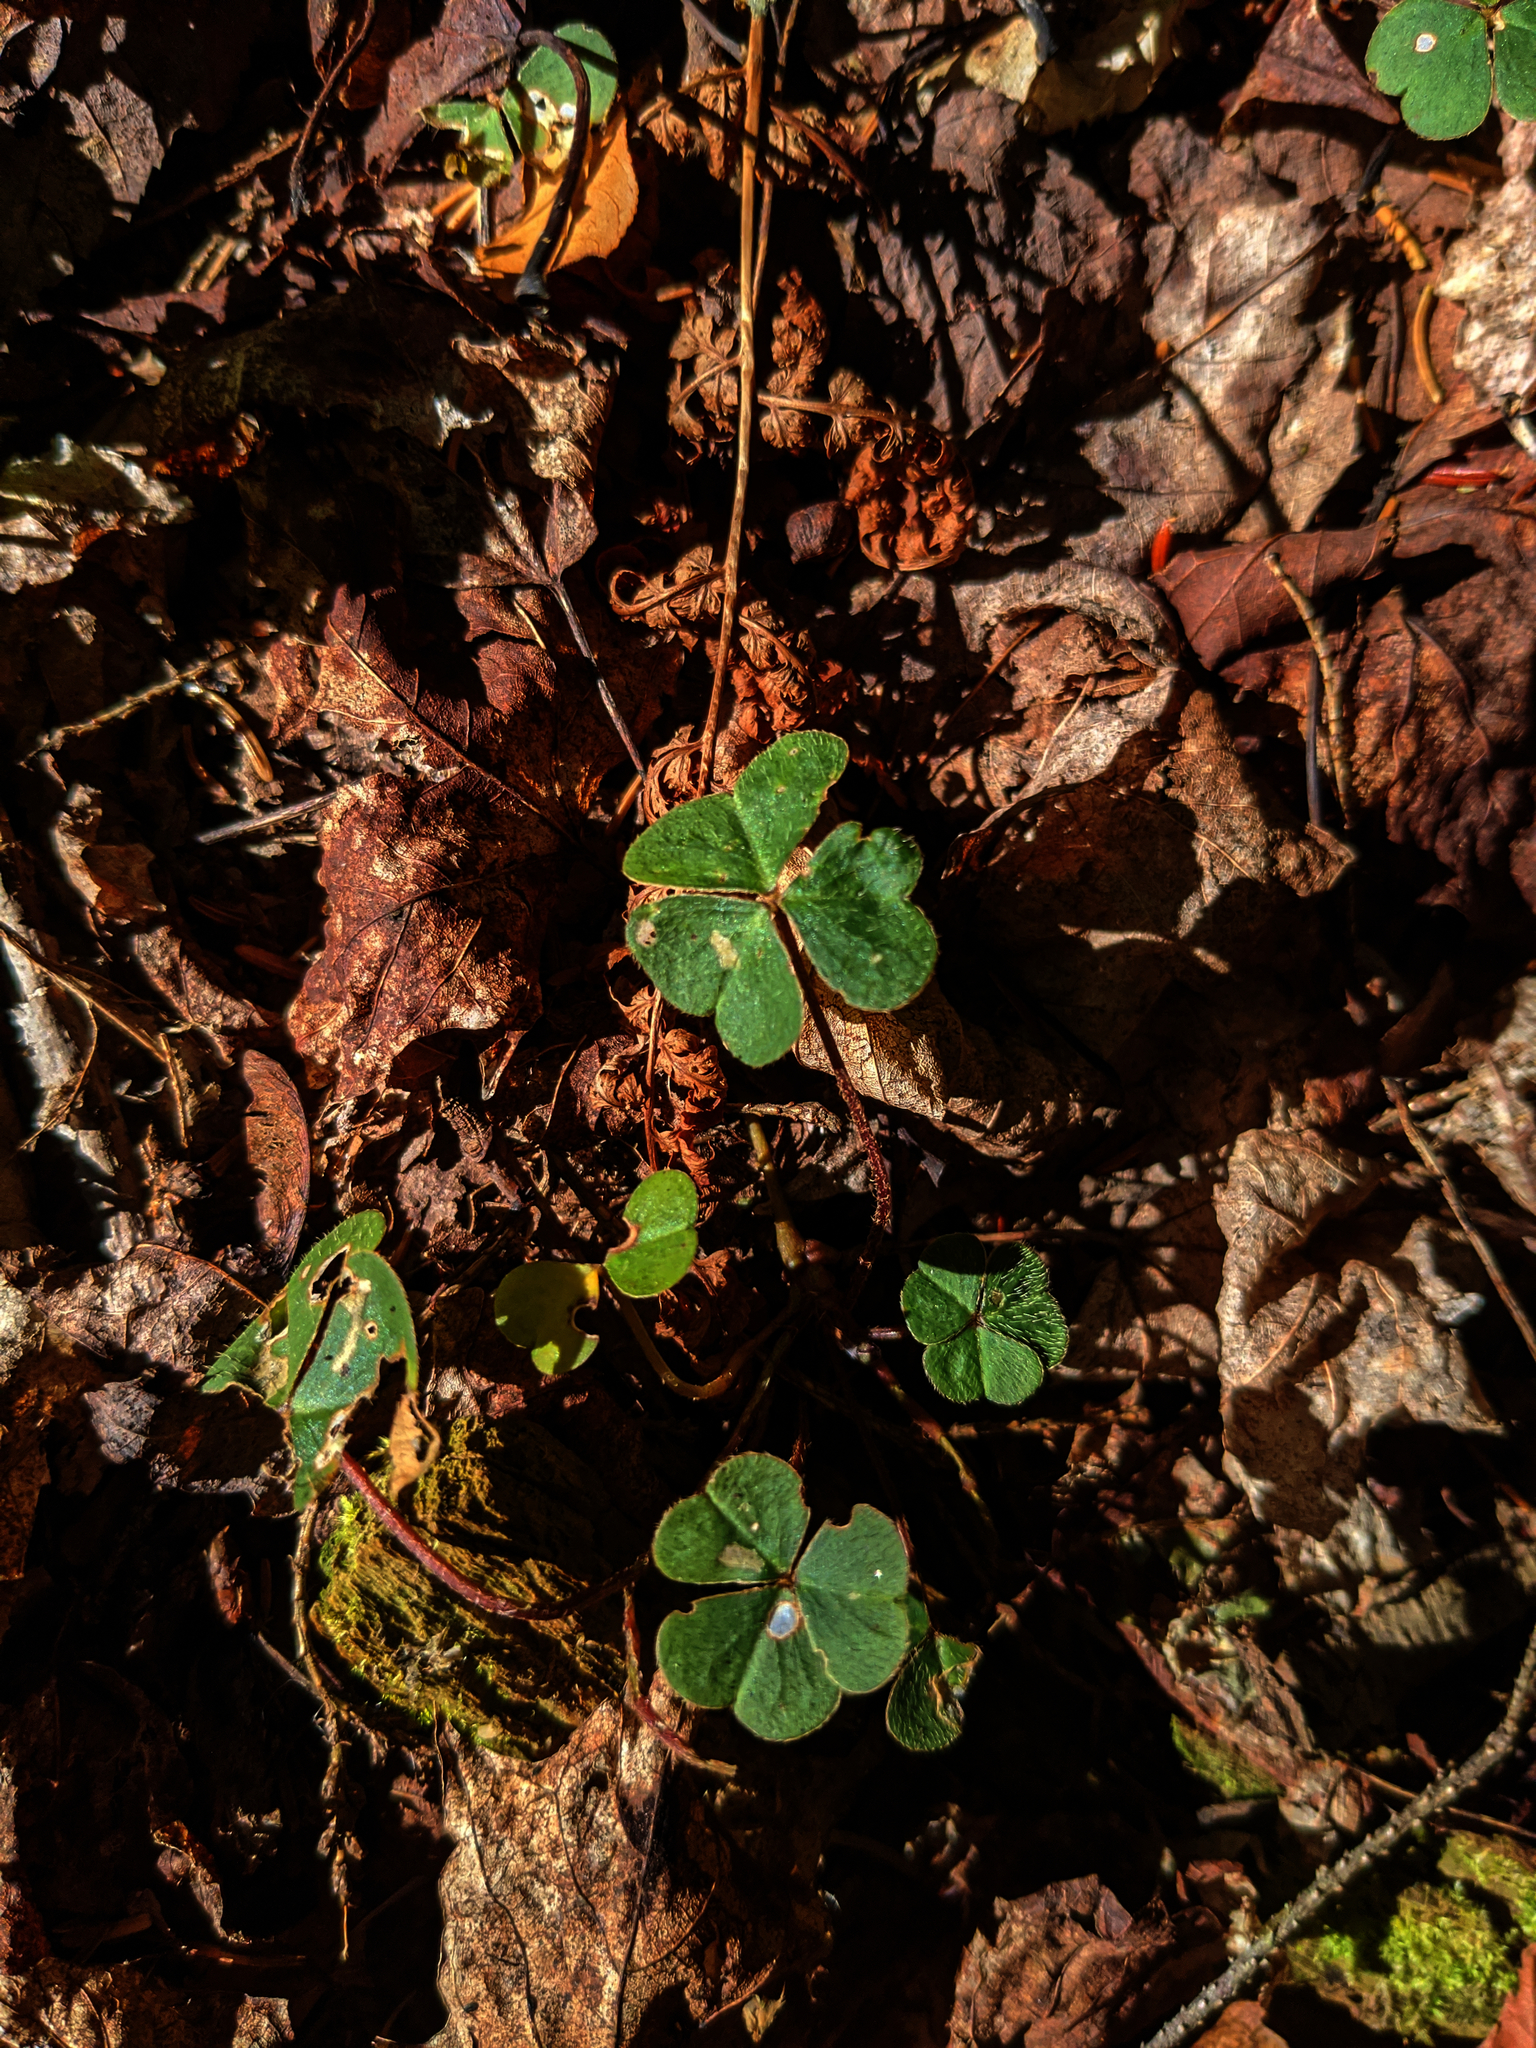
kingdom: Plantae
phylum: Tracheophyta
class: Magnoliopsida
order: Oxalidales
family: Oxalidaceae
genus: Oxalis
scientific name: Oxalis montana
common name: American wood-sorrel
